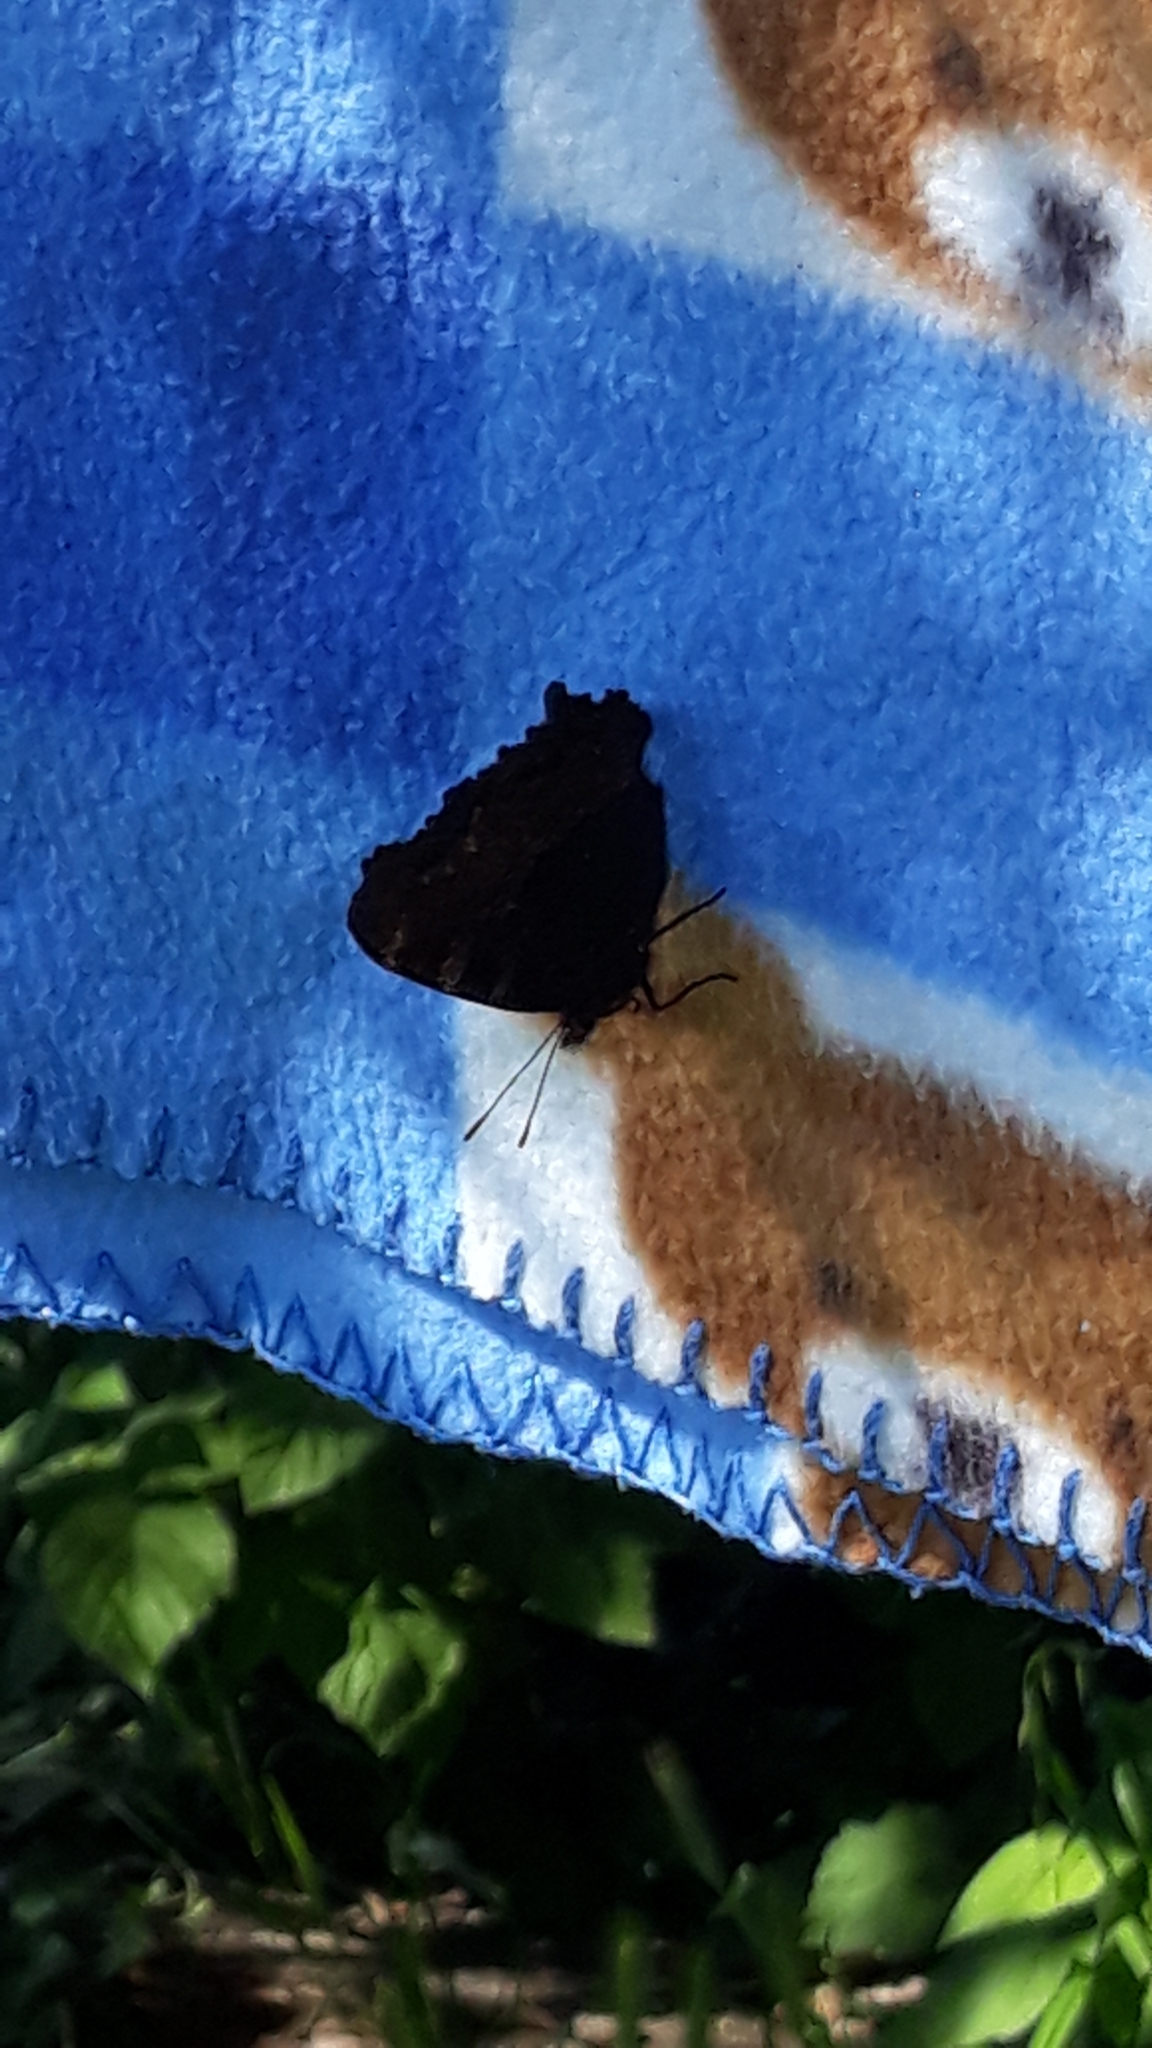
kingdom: Animalia
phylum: Arthropoda
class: Insecta
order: Lepidoptera
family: Nymphalidae
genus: Aglais
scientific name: Aglais io
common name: Peacock
